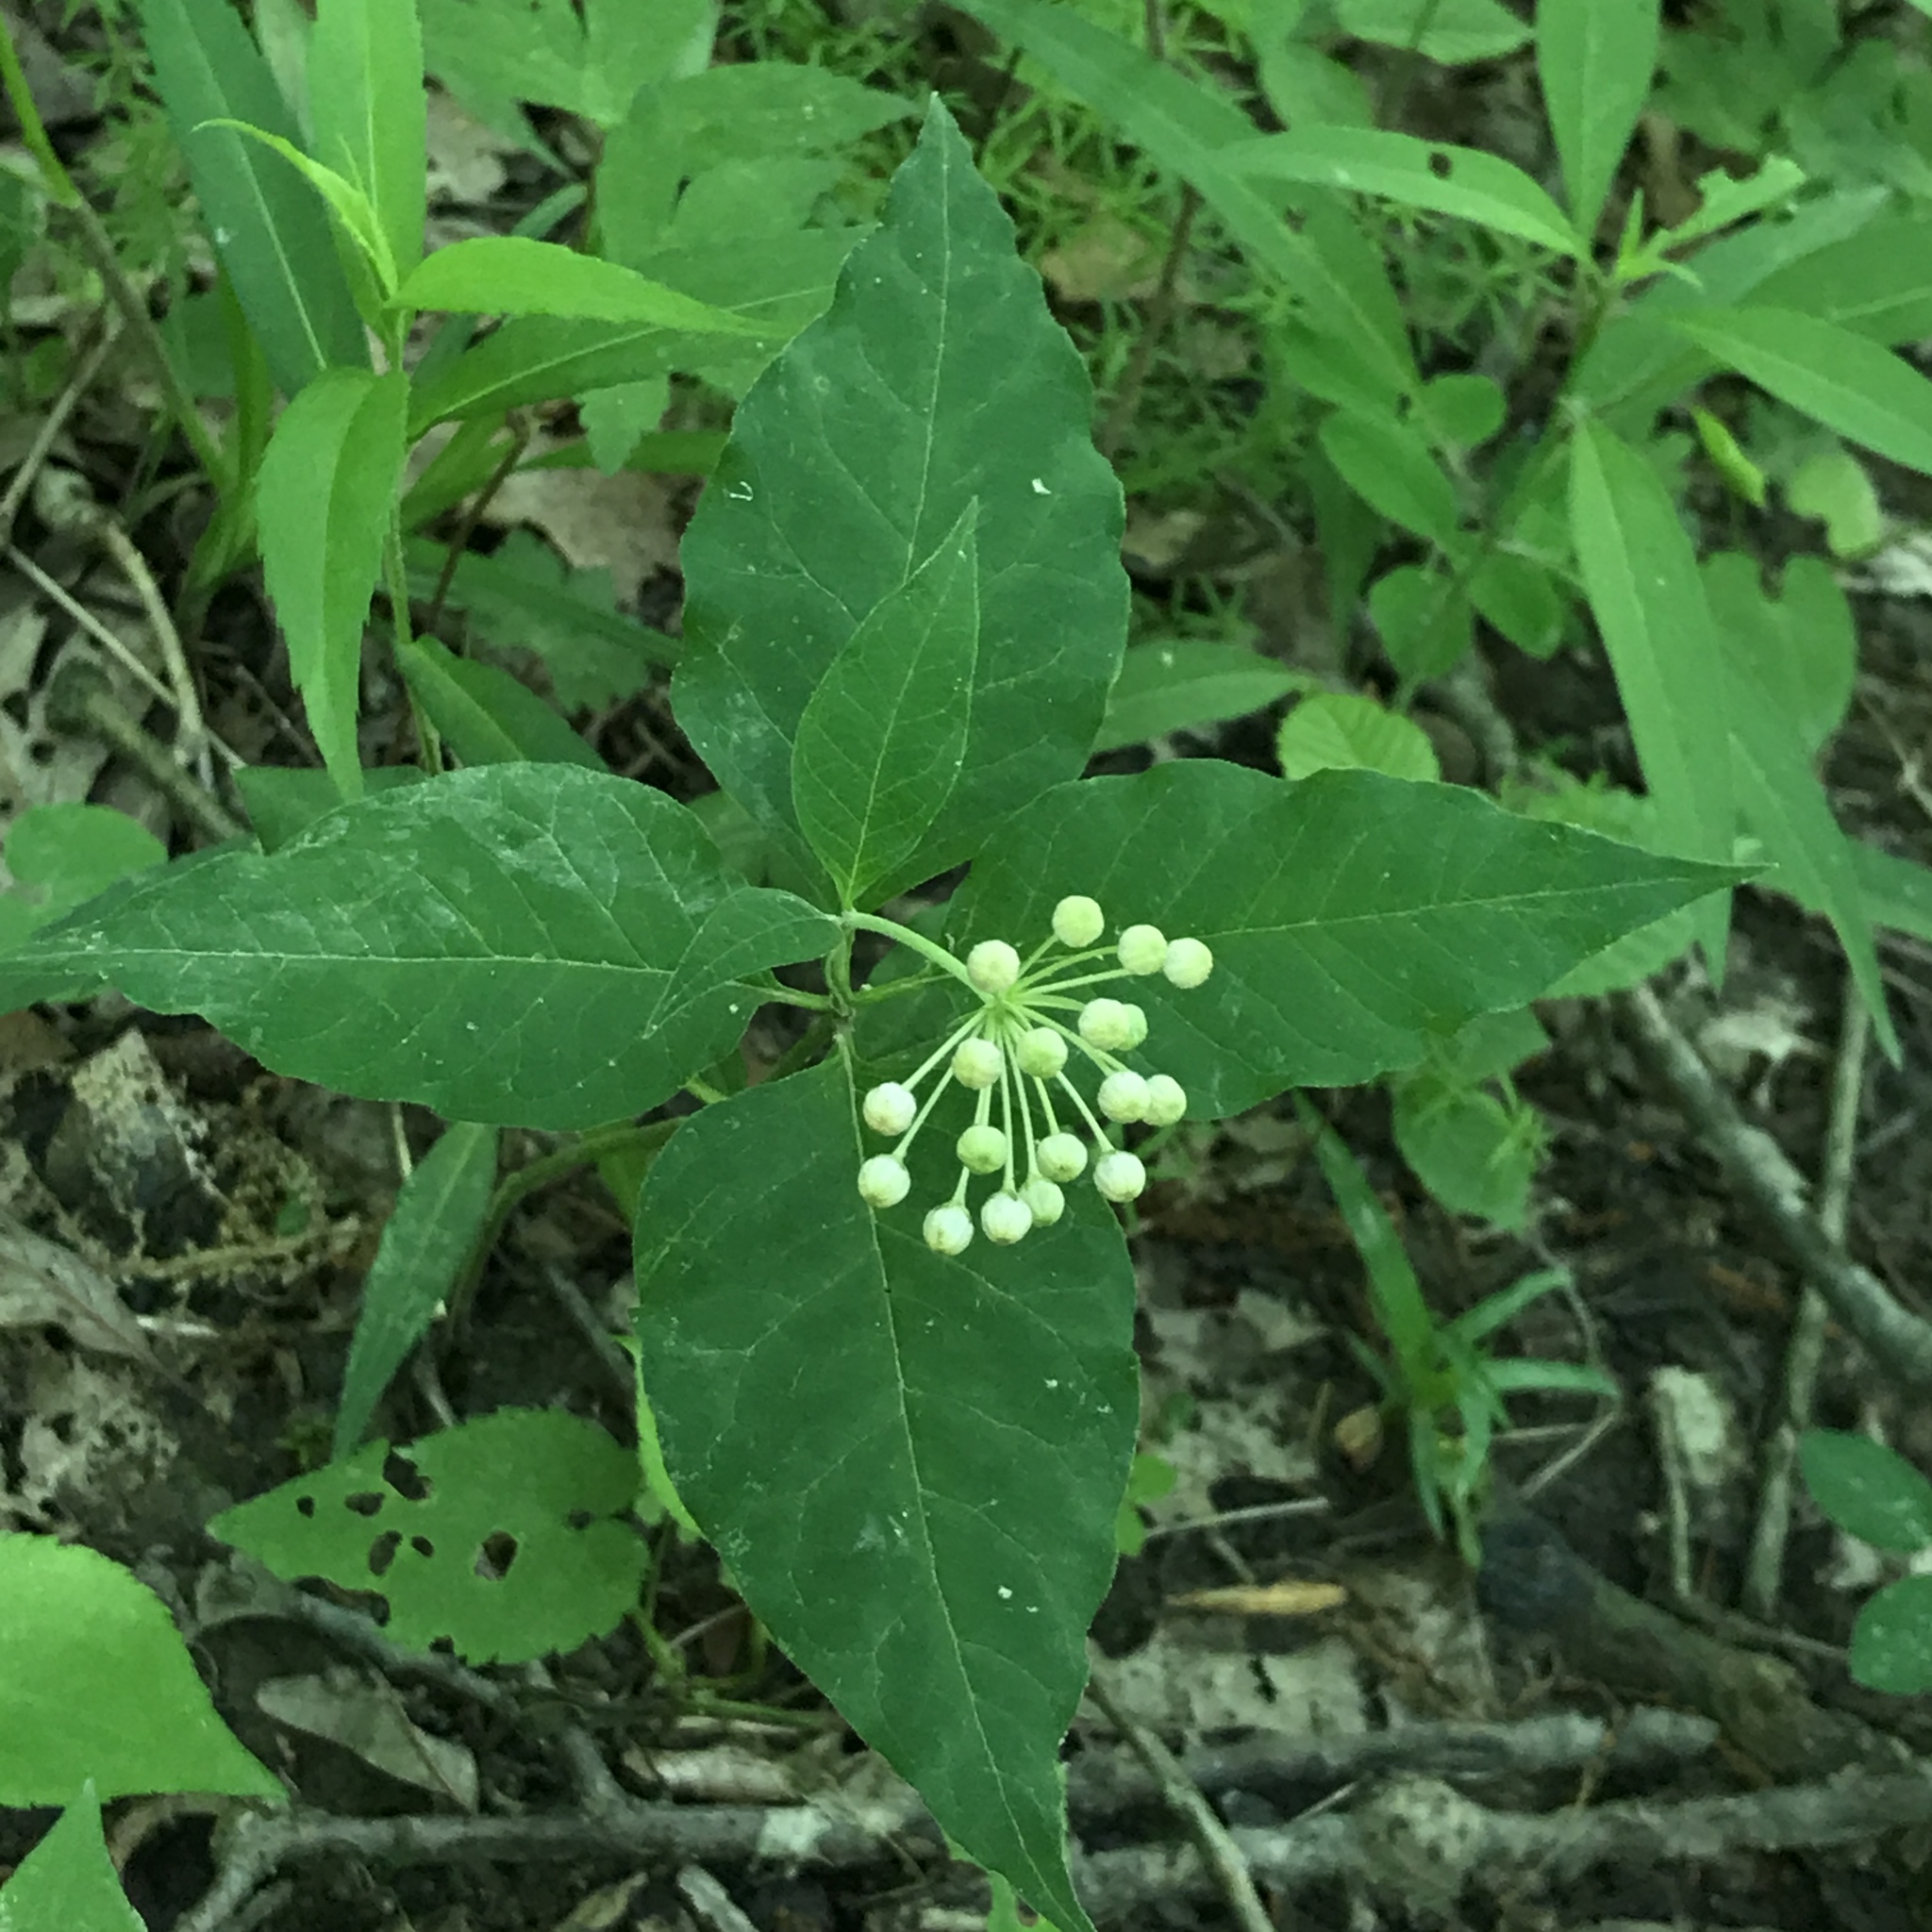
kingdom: Plantae
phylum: Tracheophyta
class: Magnoliopsida
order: Gentianales
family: Apocynaceae
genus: Asclepias
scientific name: Asclepias quadrifolia
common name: Whorled milkweed
